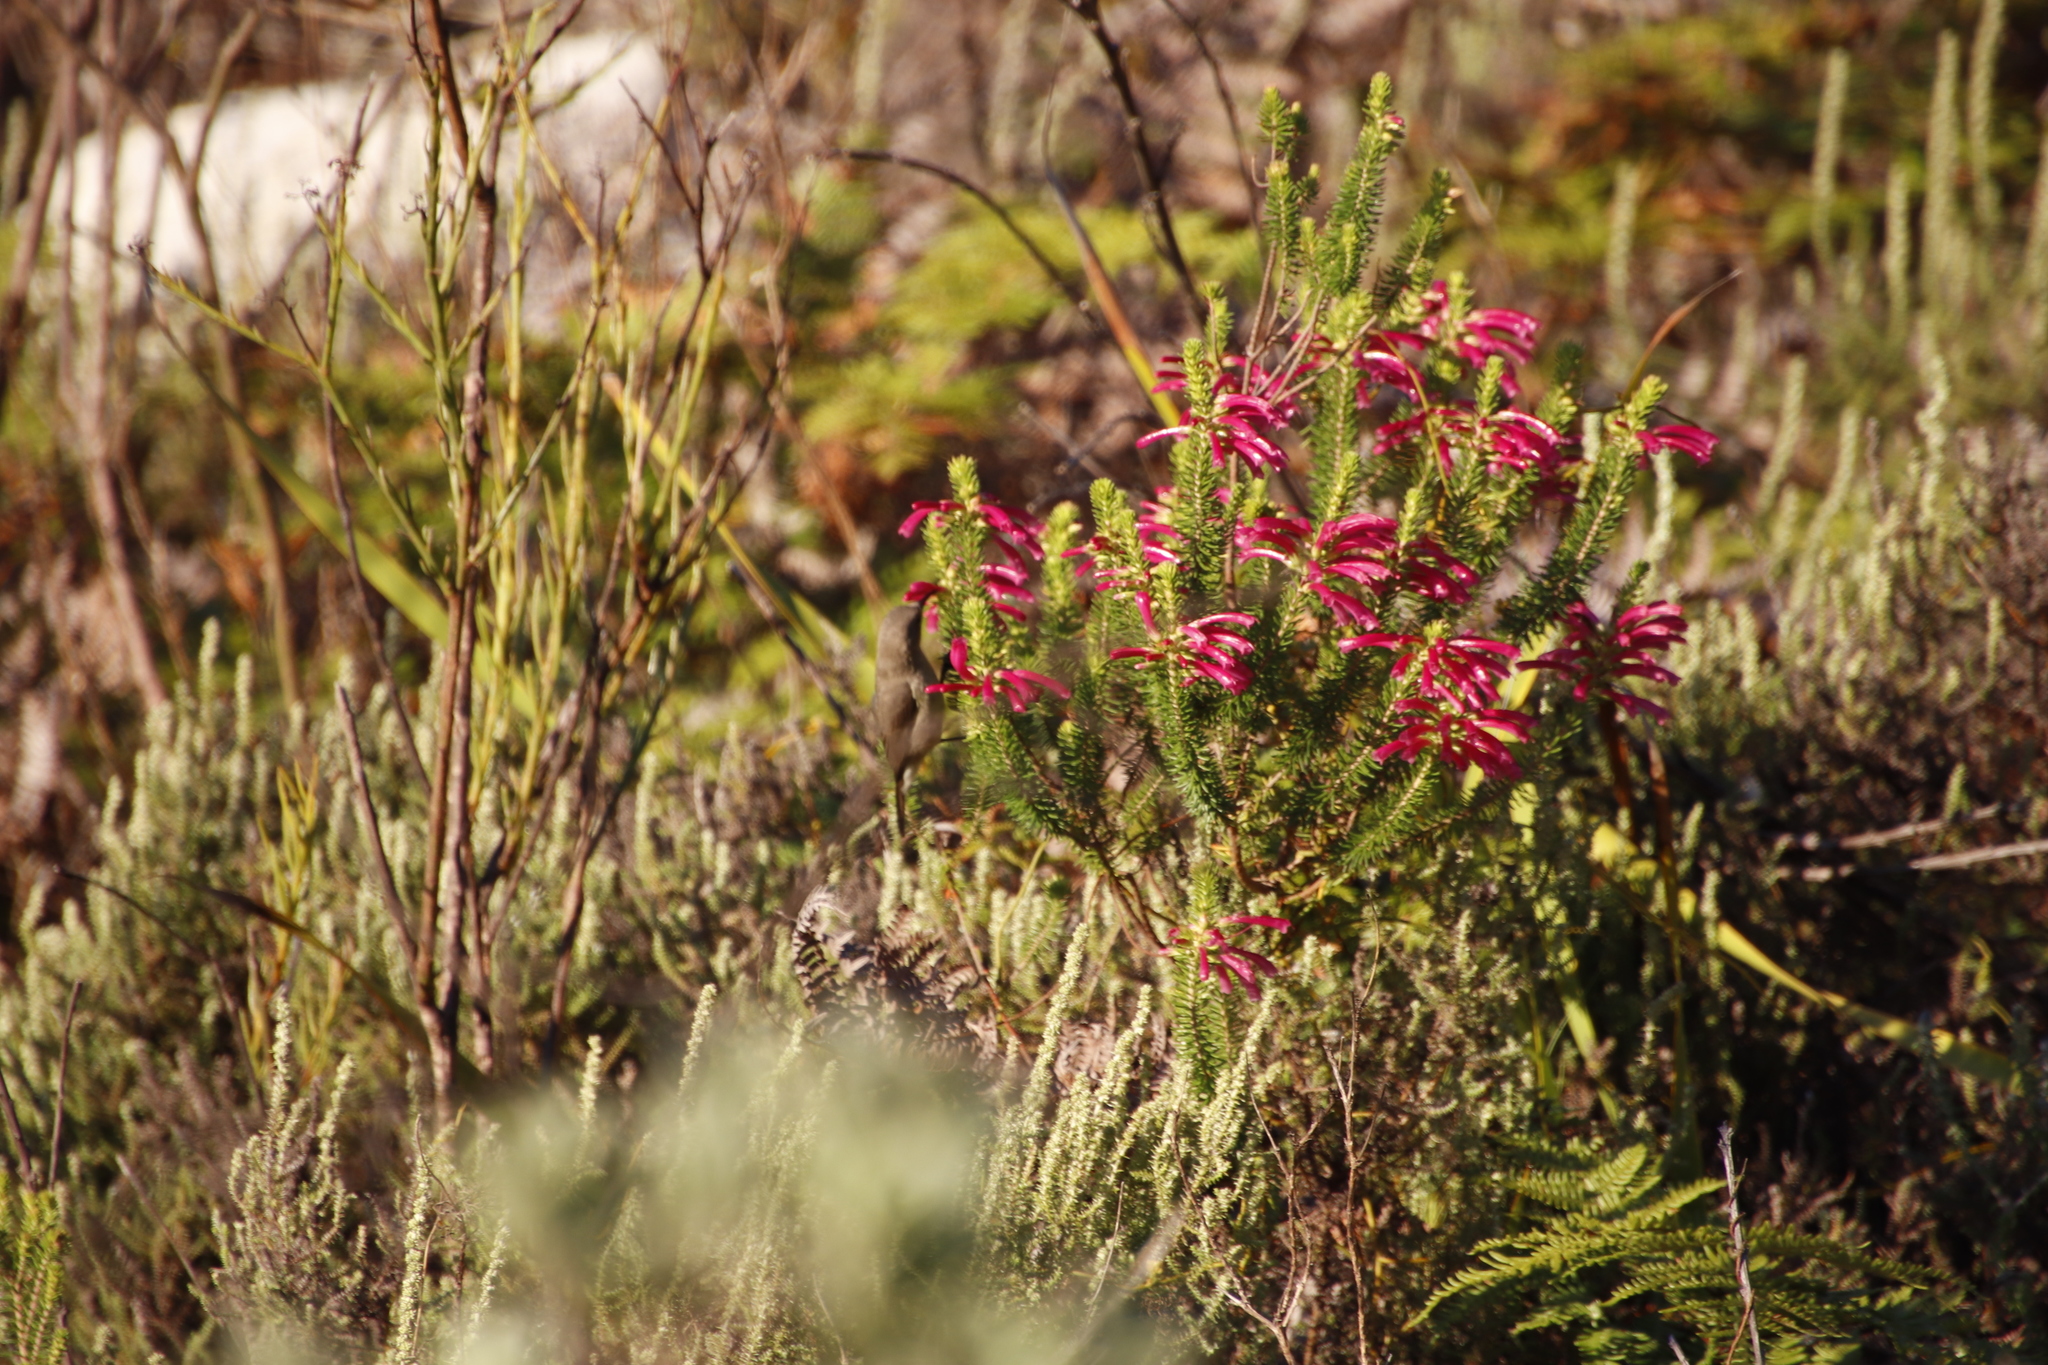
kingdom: Plantae
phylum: Tracheophyta
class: Magnoliopsida
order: Ericales
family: Ericaceae
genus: Erica
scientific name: Erica abietina
